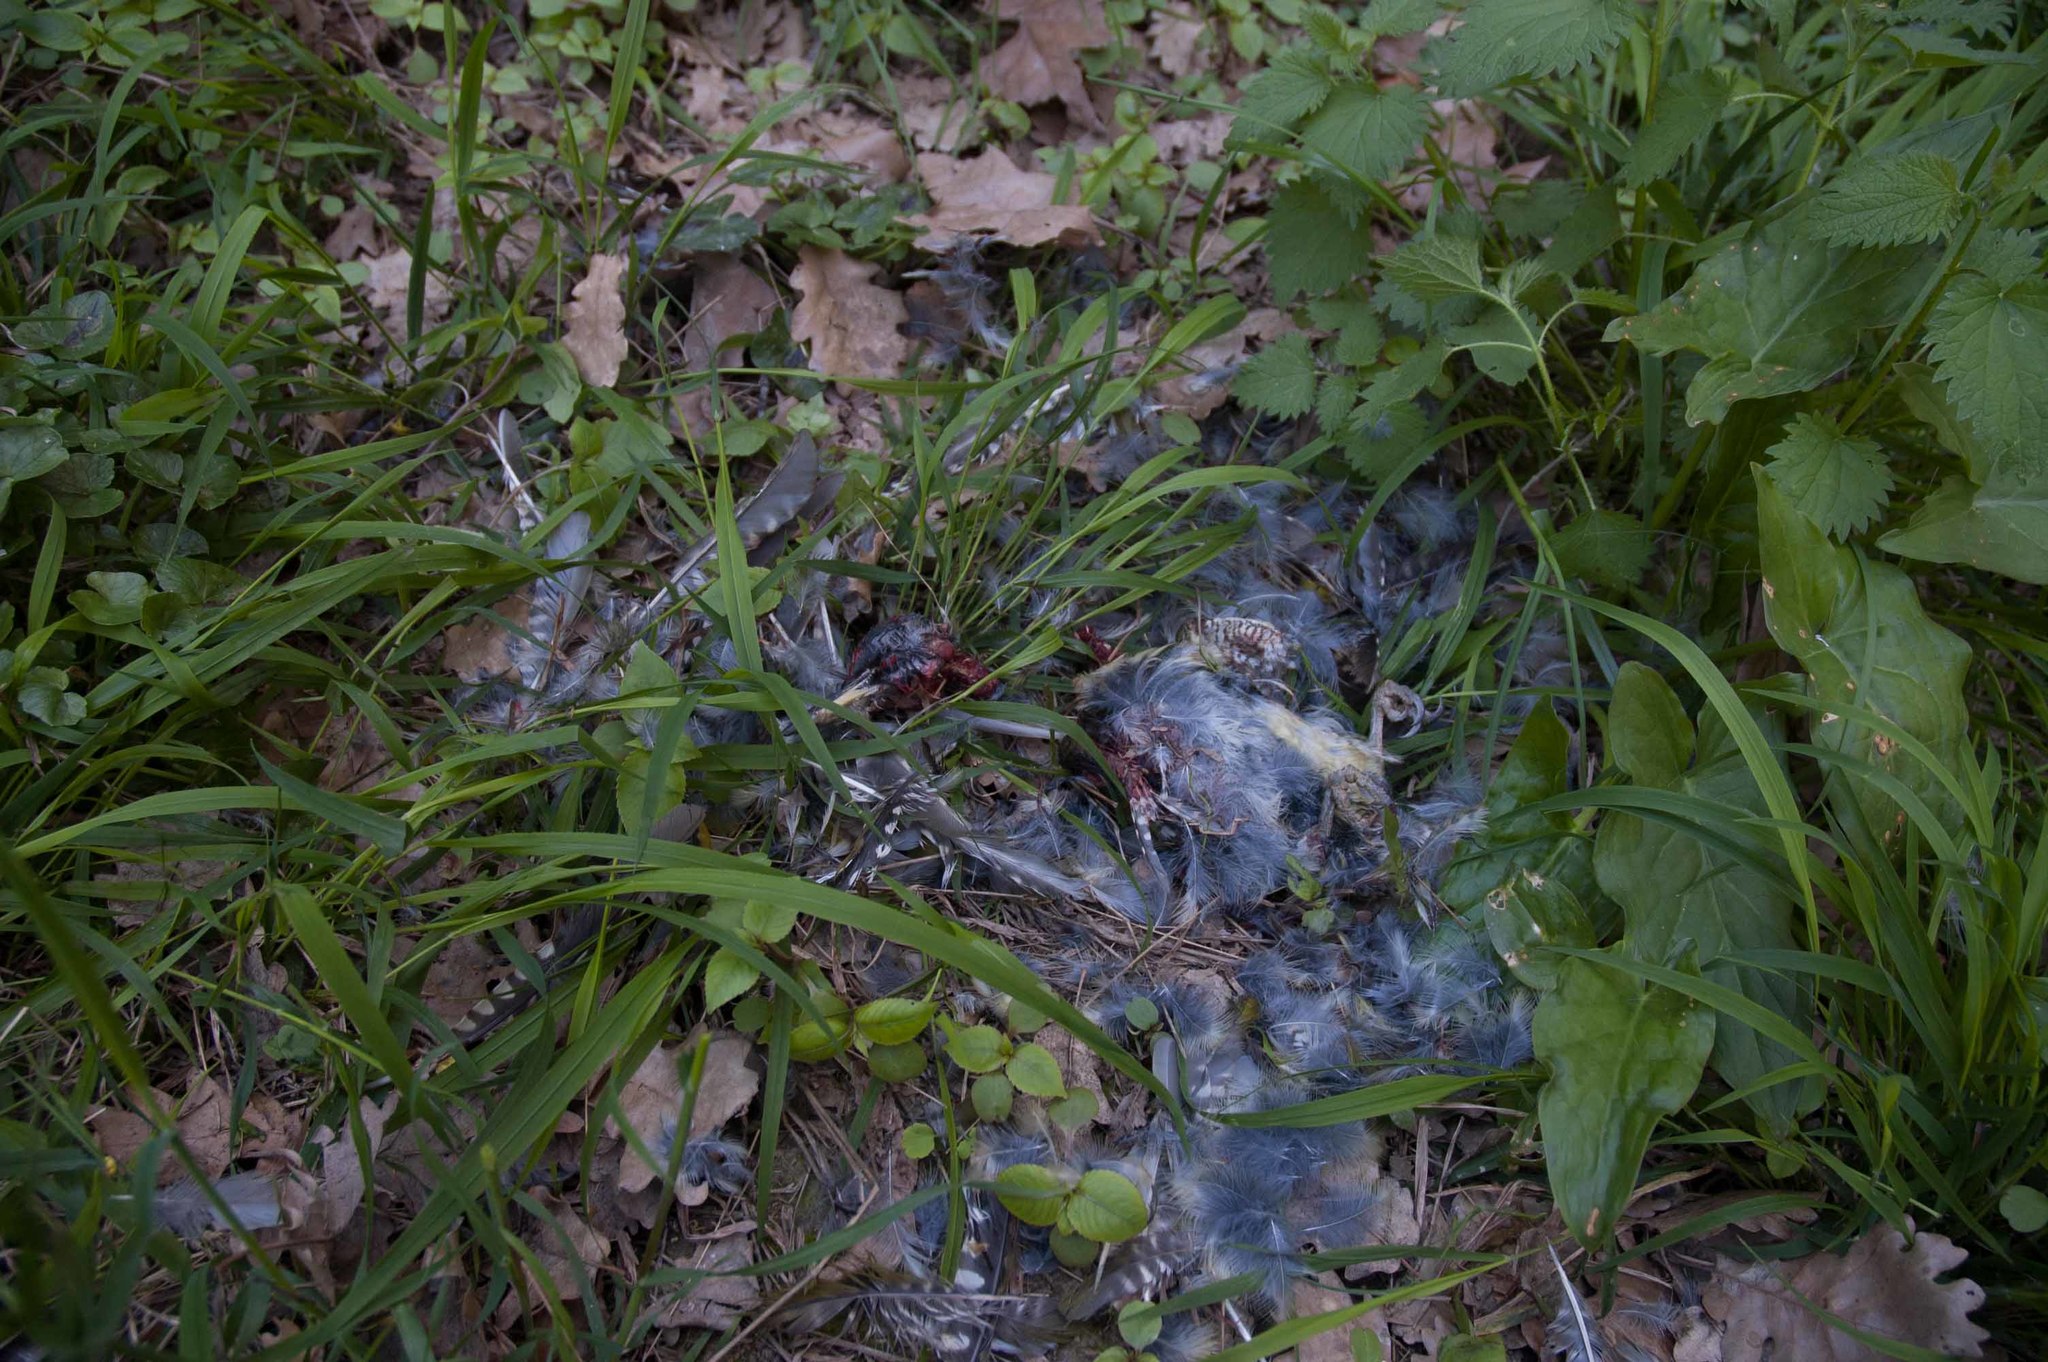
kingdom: Animalia
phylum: Chordata
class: Aves
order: Piciformes
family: Picidae
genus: Picus
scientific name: Picus viridis
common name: European green woodpecker
